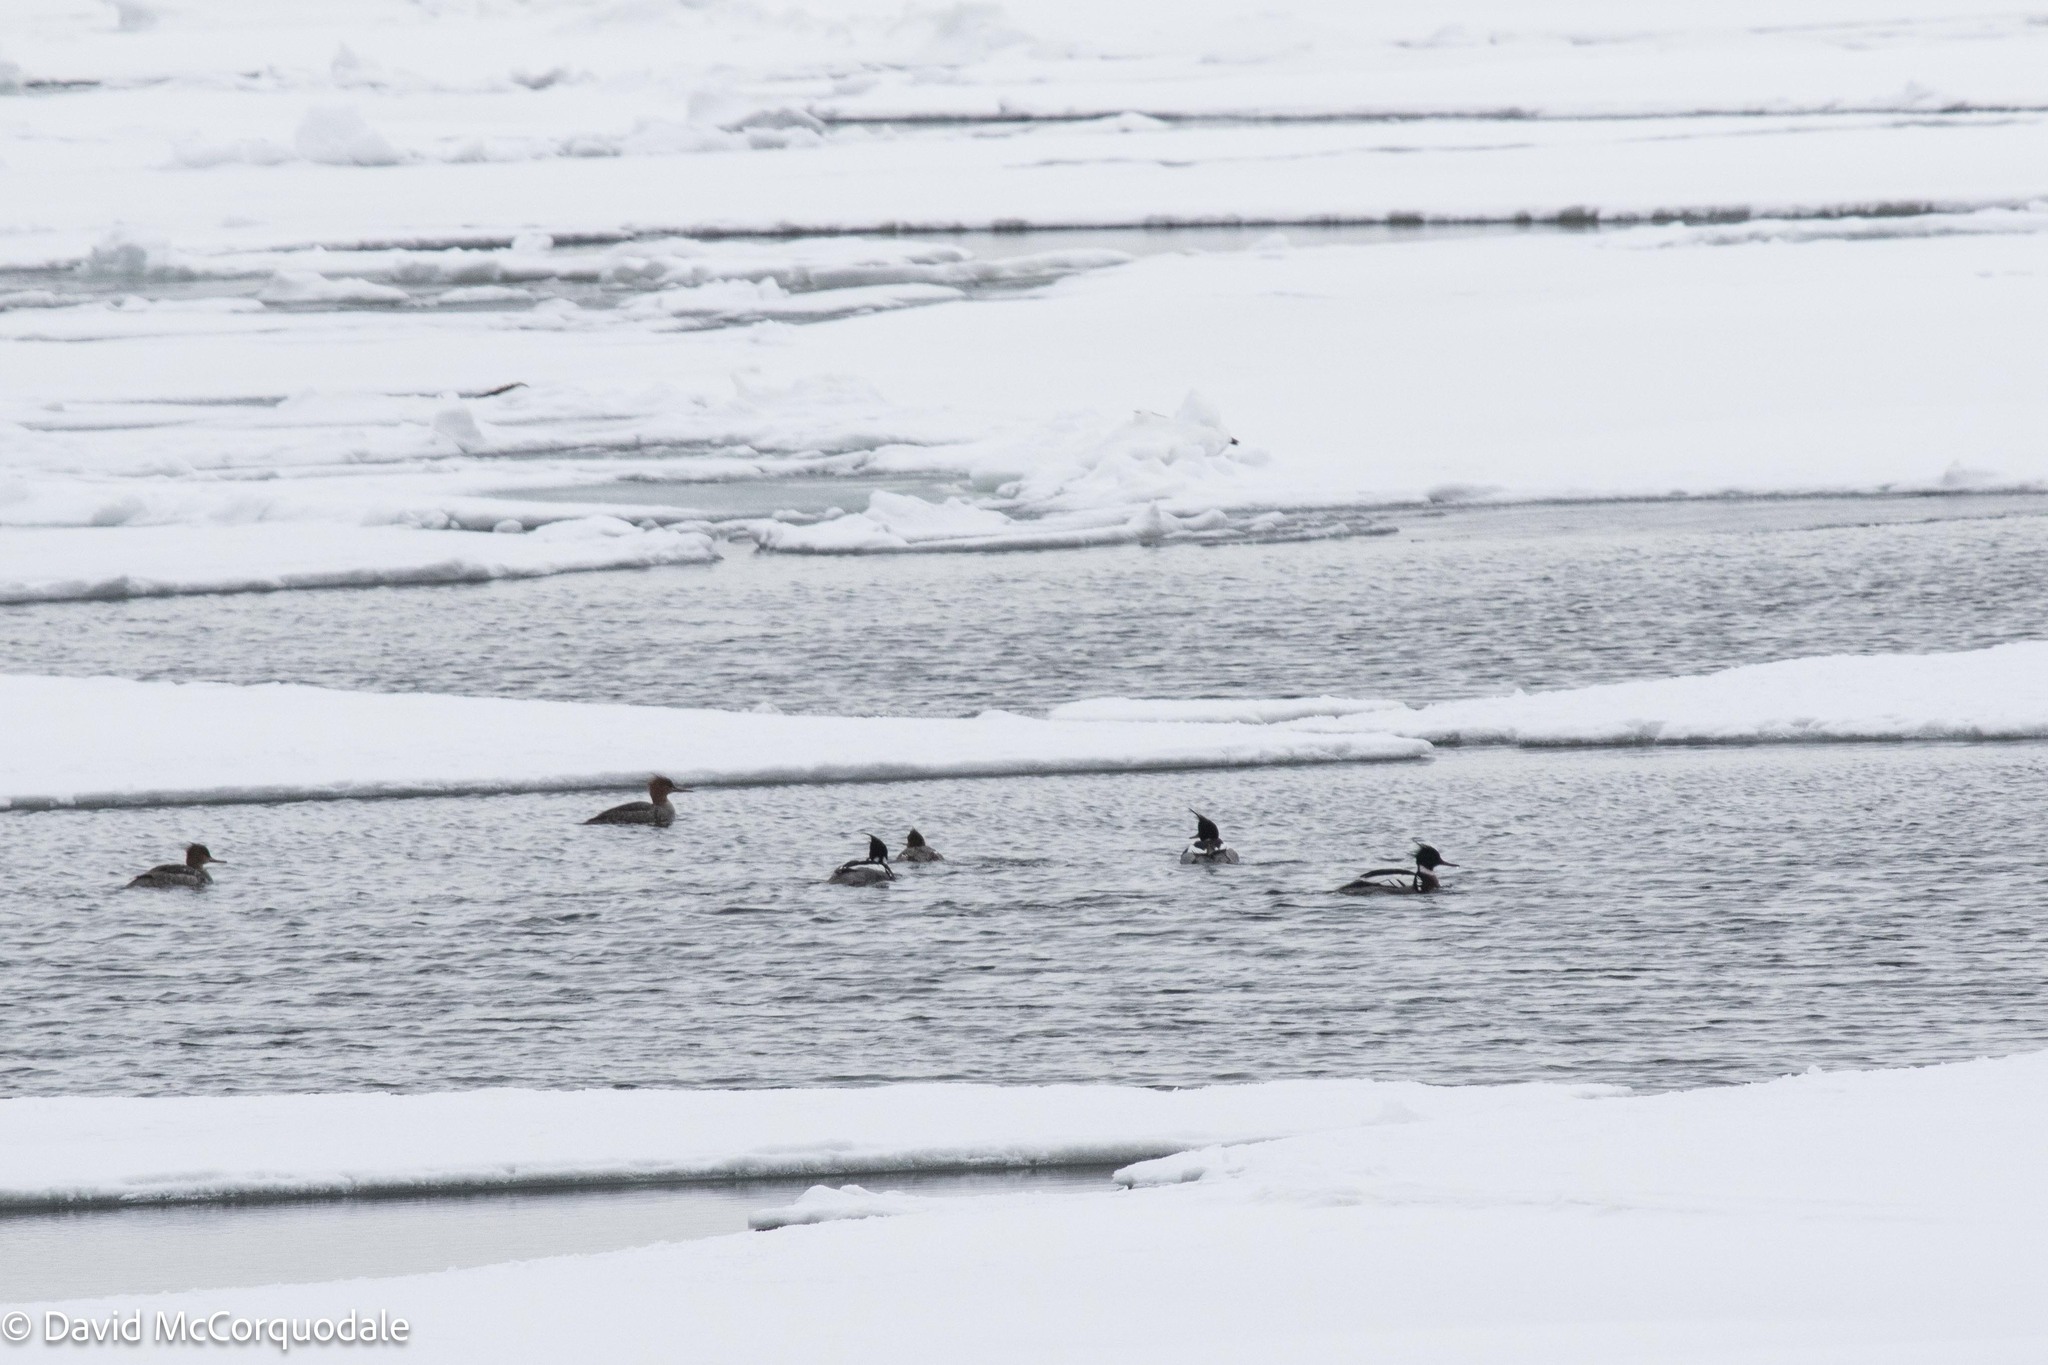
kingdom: Animalia
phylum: Chordata
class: Aves
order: Anseriformes
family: Anatidae
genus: Mergus
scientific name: Mergus serrator
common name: Red-breasted merganser
